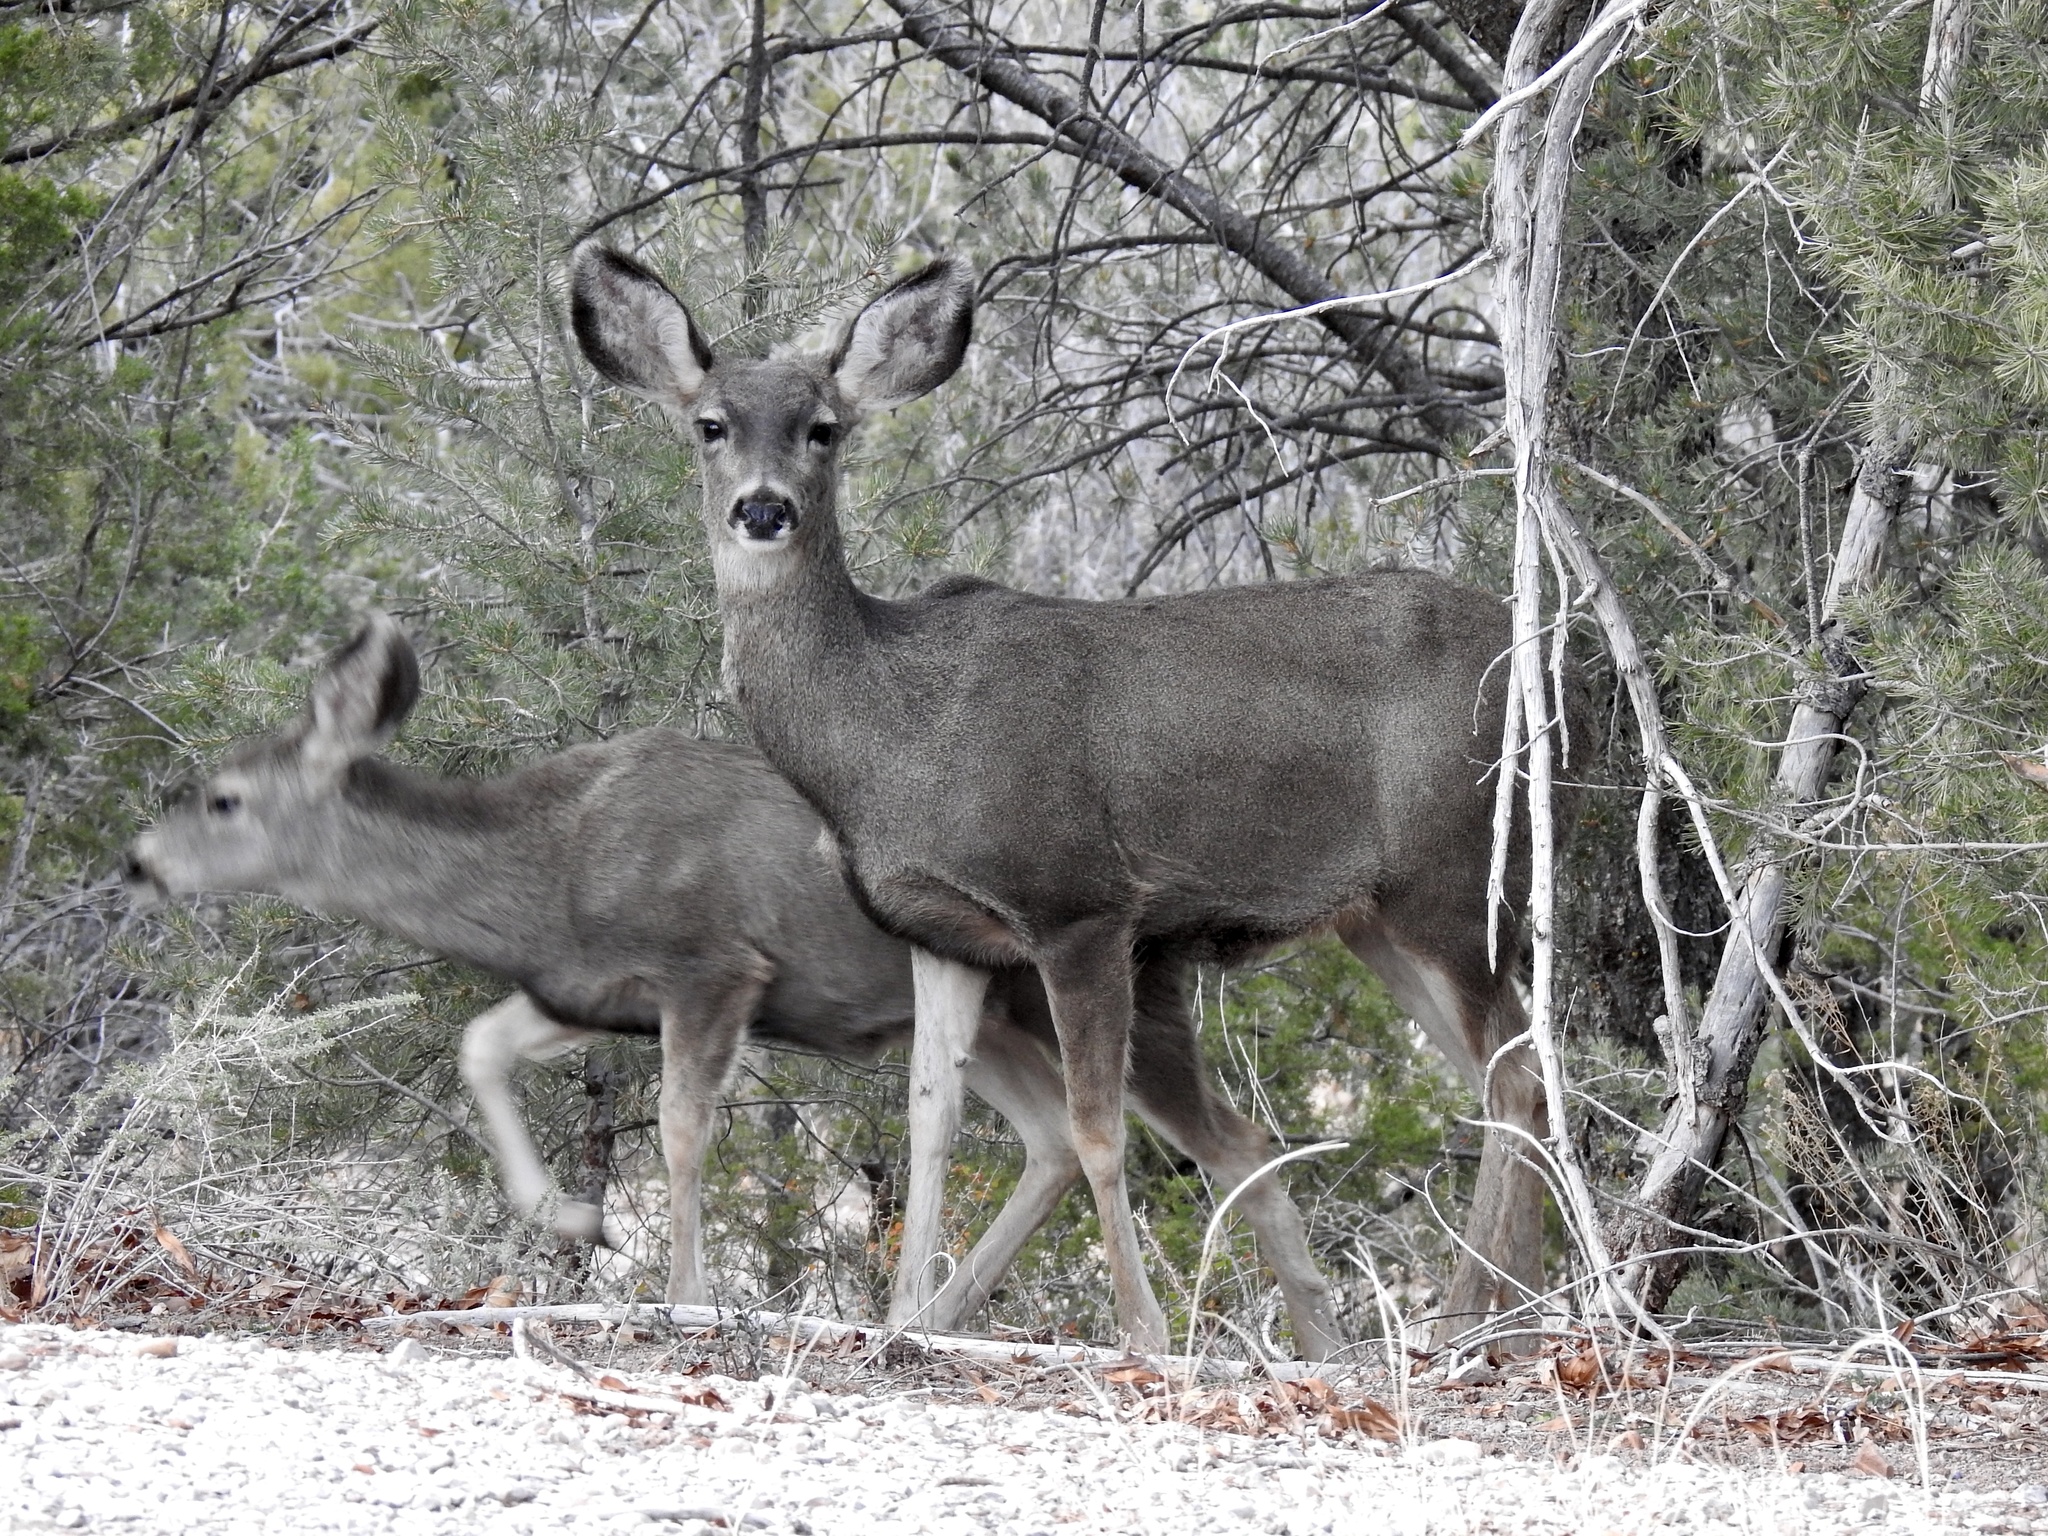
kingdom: Animalia
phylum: Chordata
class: Mammalia
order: Artiodactyla
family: Cervidae
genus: Odocoileus
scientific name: Odocoileus hemionus
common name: Mule deer
